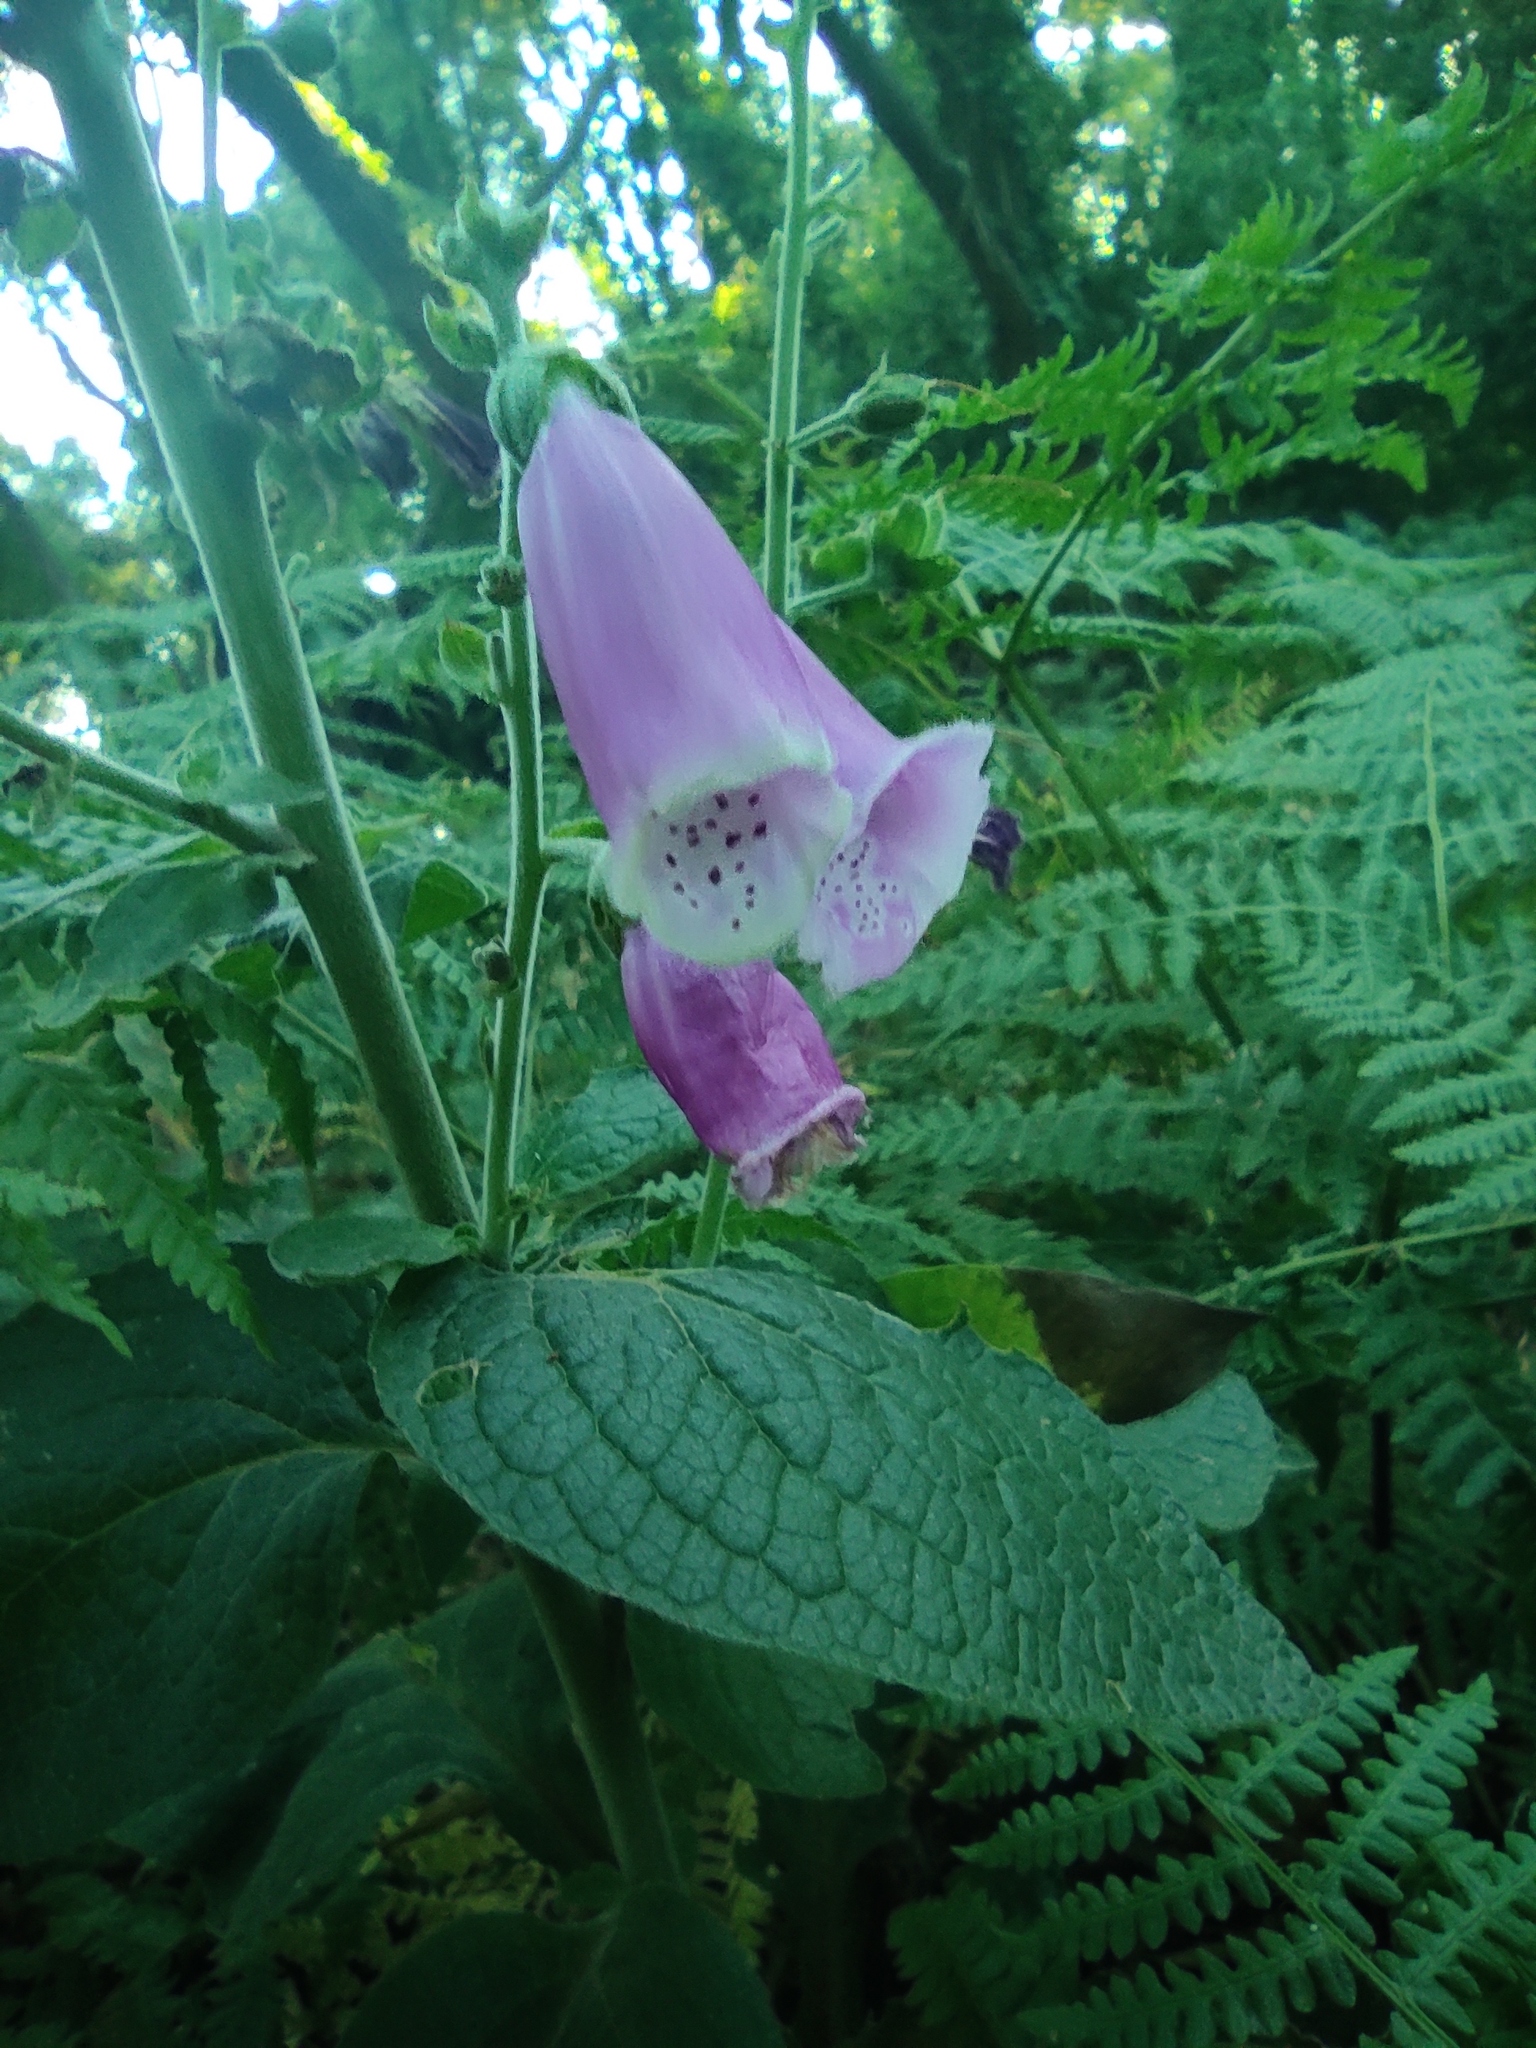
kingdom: Plantae
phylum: Tracheophyta
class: Magnoliopsida
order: Lamiales
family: Plantaginaceae
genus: Digitalis
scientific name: Digitalis purpurea
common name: Foxglove
